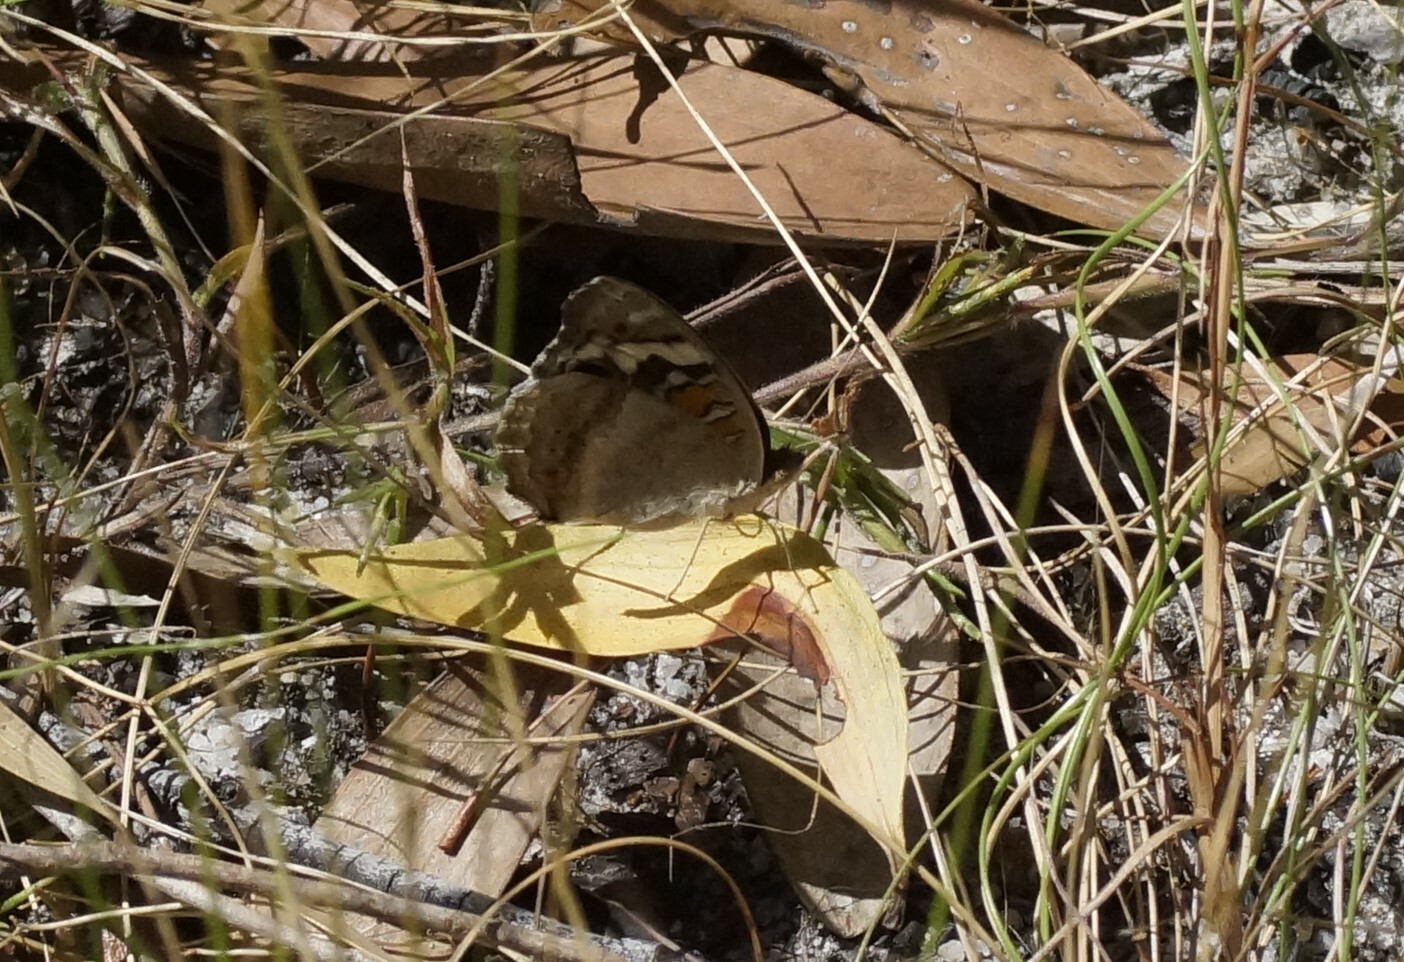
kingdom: Animalia
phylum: Arthropoda
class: Insecta
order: Lepidoptera
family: Nymphalidae
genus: Junonia
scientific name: Junonia orithya
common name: Blue pansy
